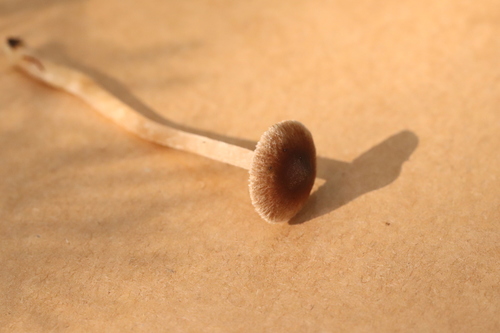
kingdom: Fungi
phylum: Basidiomycota
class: Agaricomycetes
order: Agaricales
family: Inocybaceae
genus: Inocybe
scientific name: Inocybe acuta
